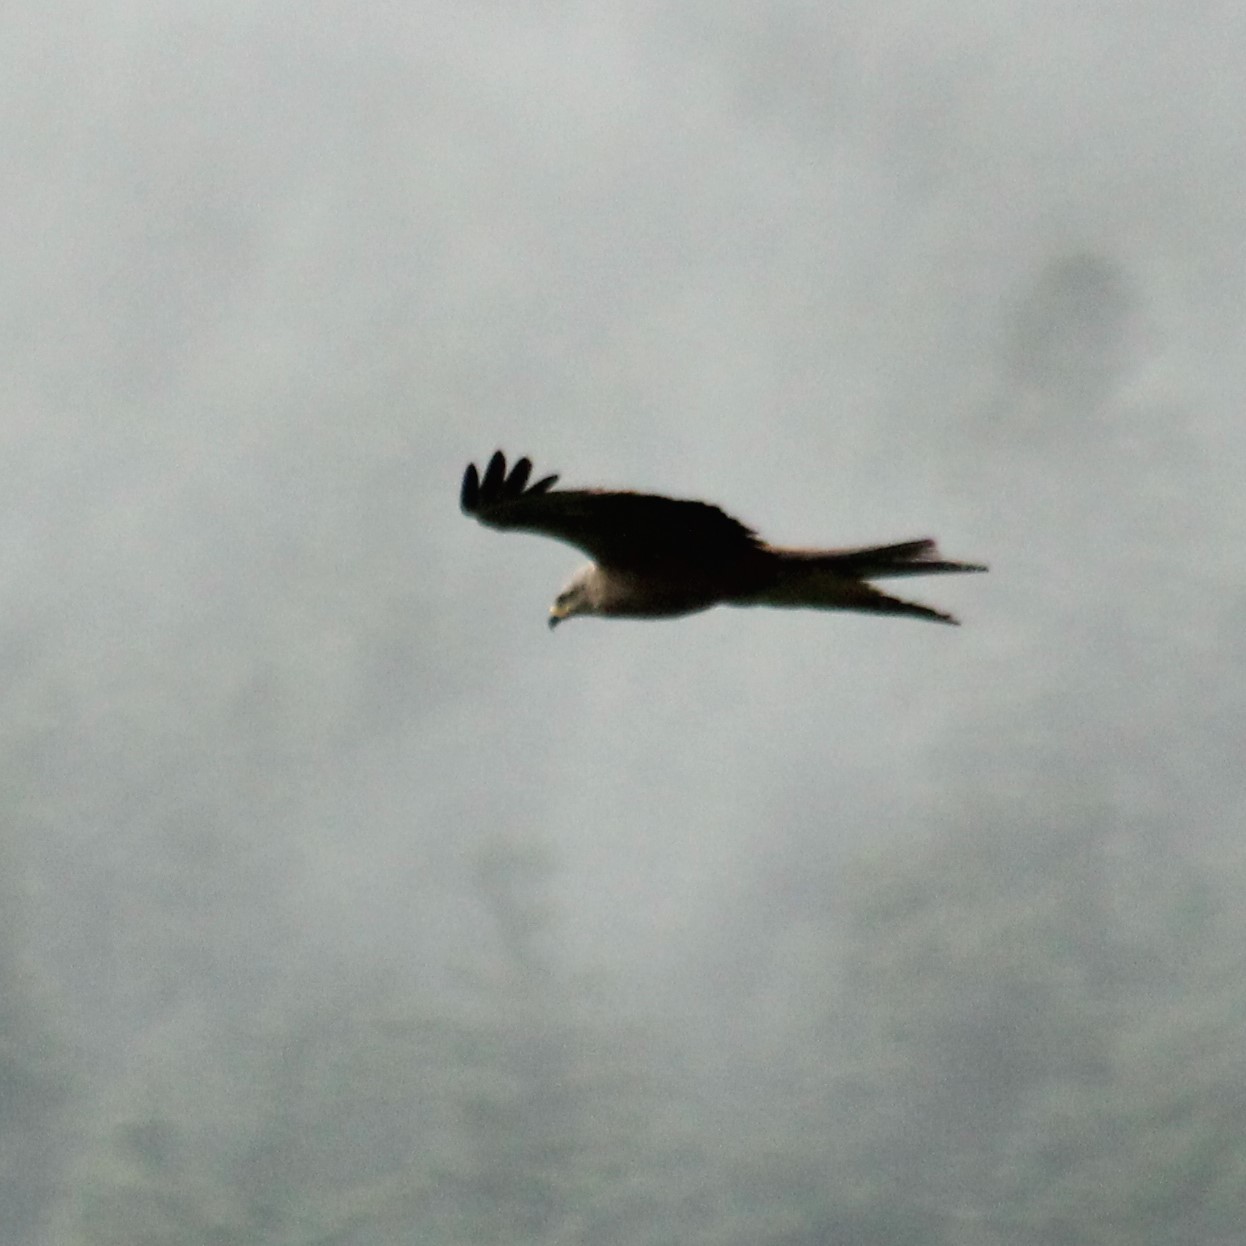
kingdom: Animalia
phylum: Chordata
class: Aves
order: Accipitriformes
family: Accipitridae
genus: Milvus
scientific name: Milvus migrans
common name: Black kite
